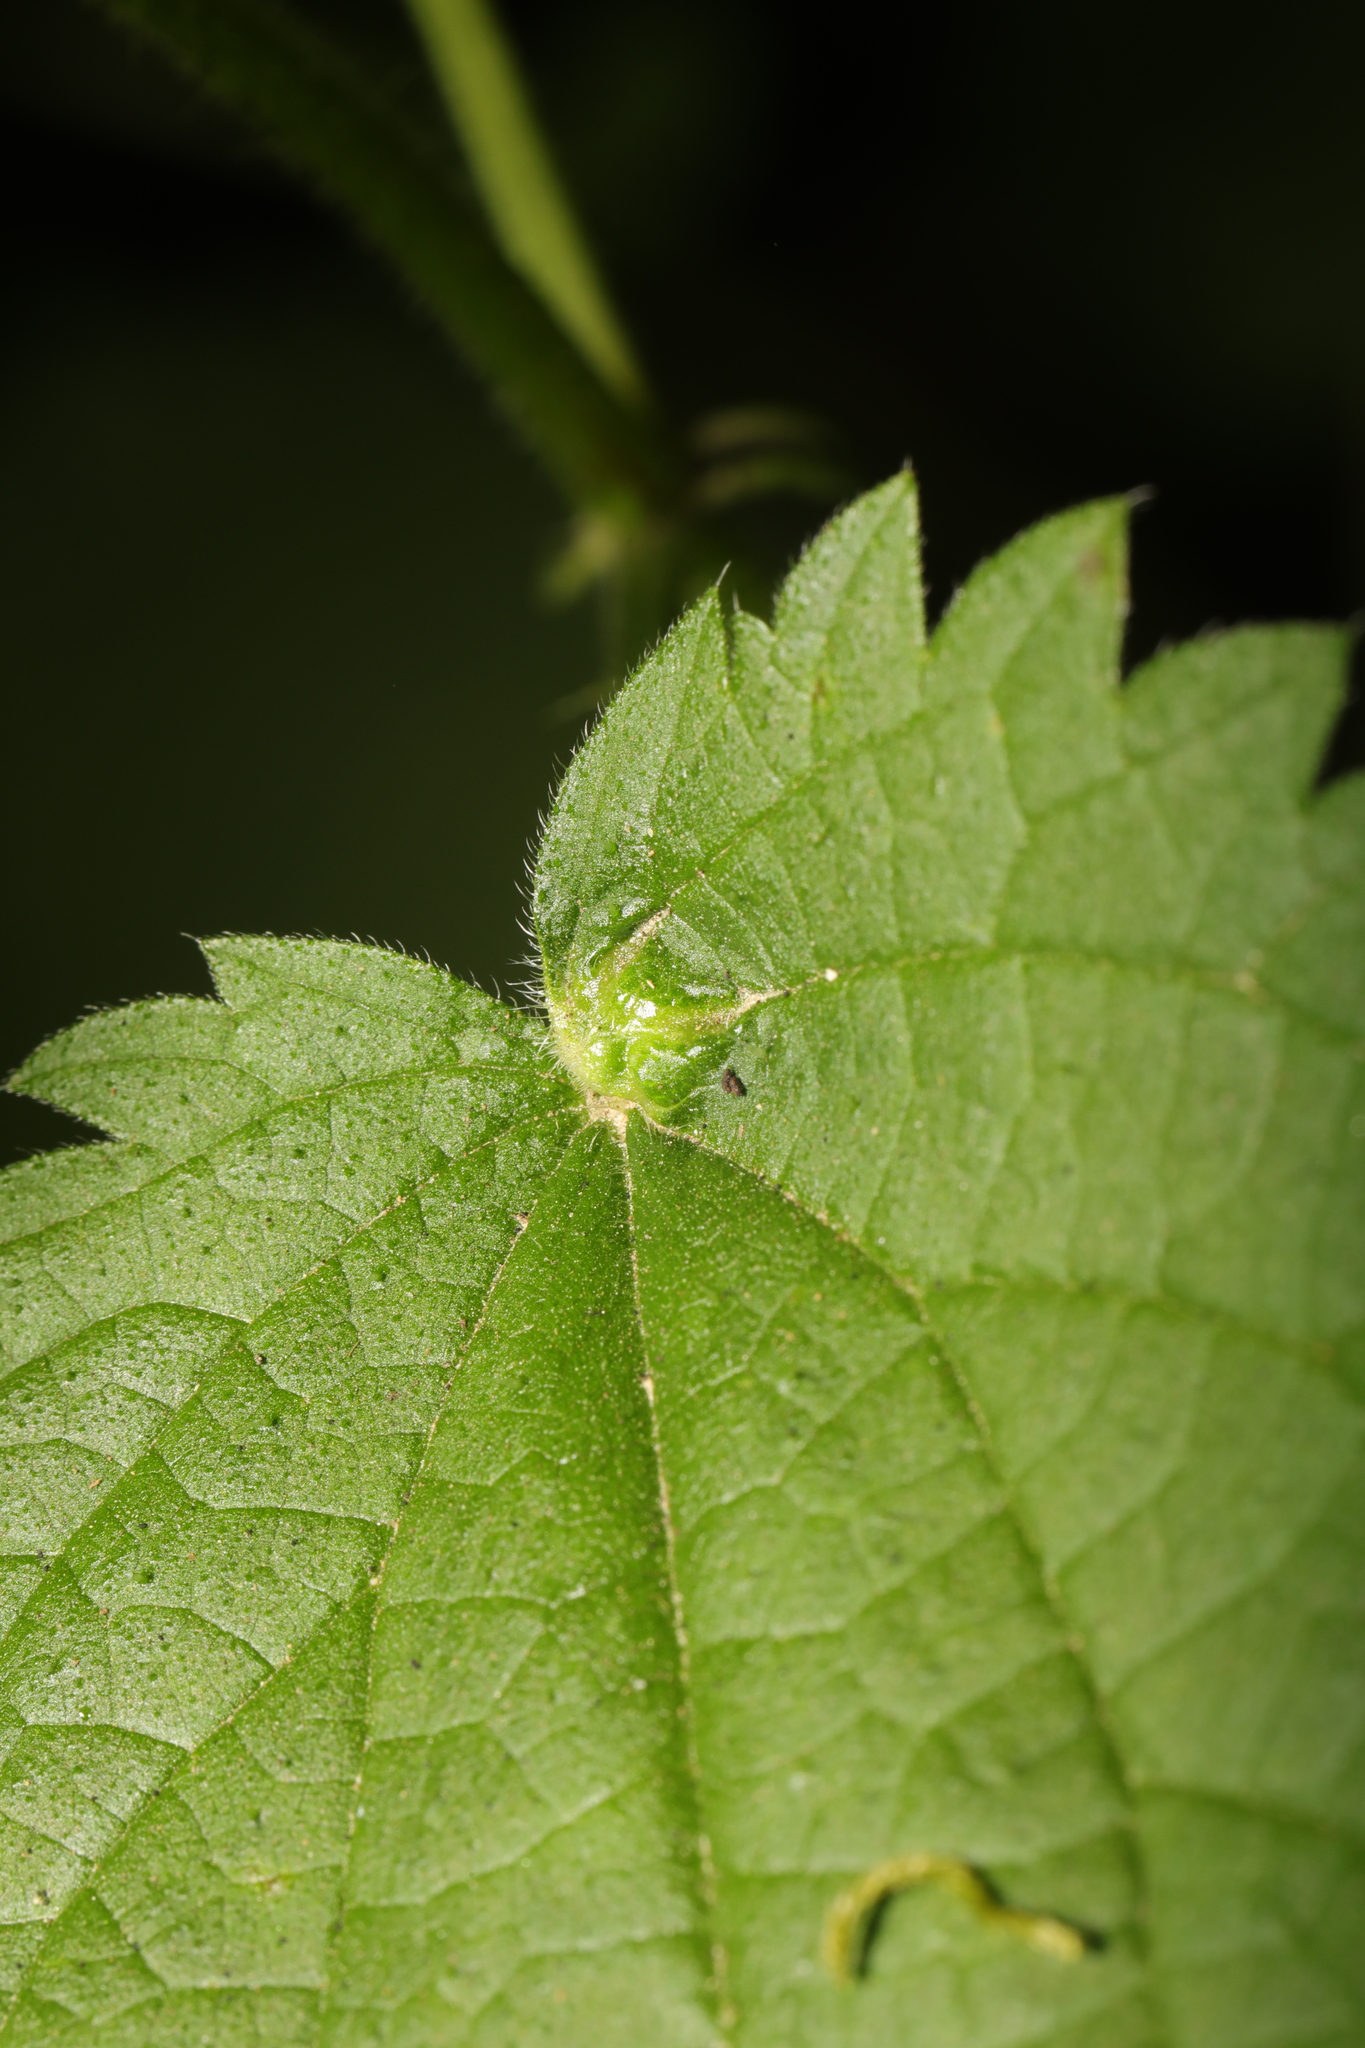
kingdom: Animalia
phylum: Arthropoda
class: Insecta
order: Diptera
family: Cecidomyiidae
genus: Dasineura
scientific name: Dasineura urticae
